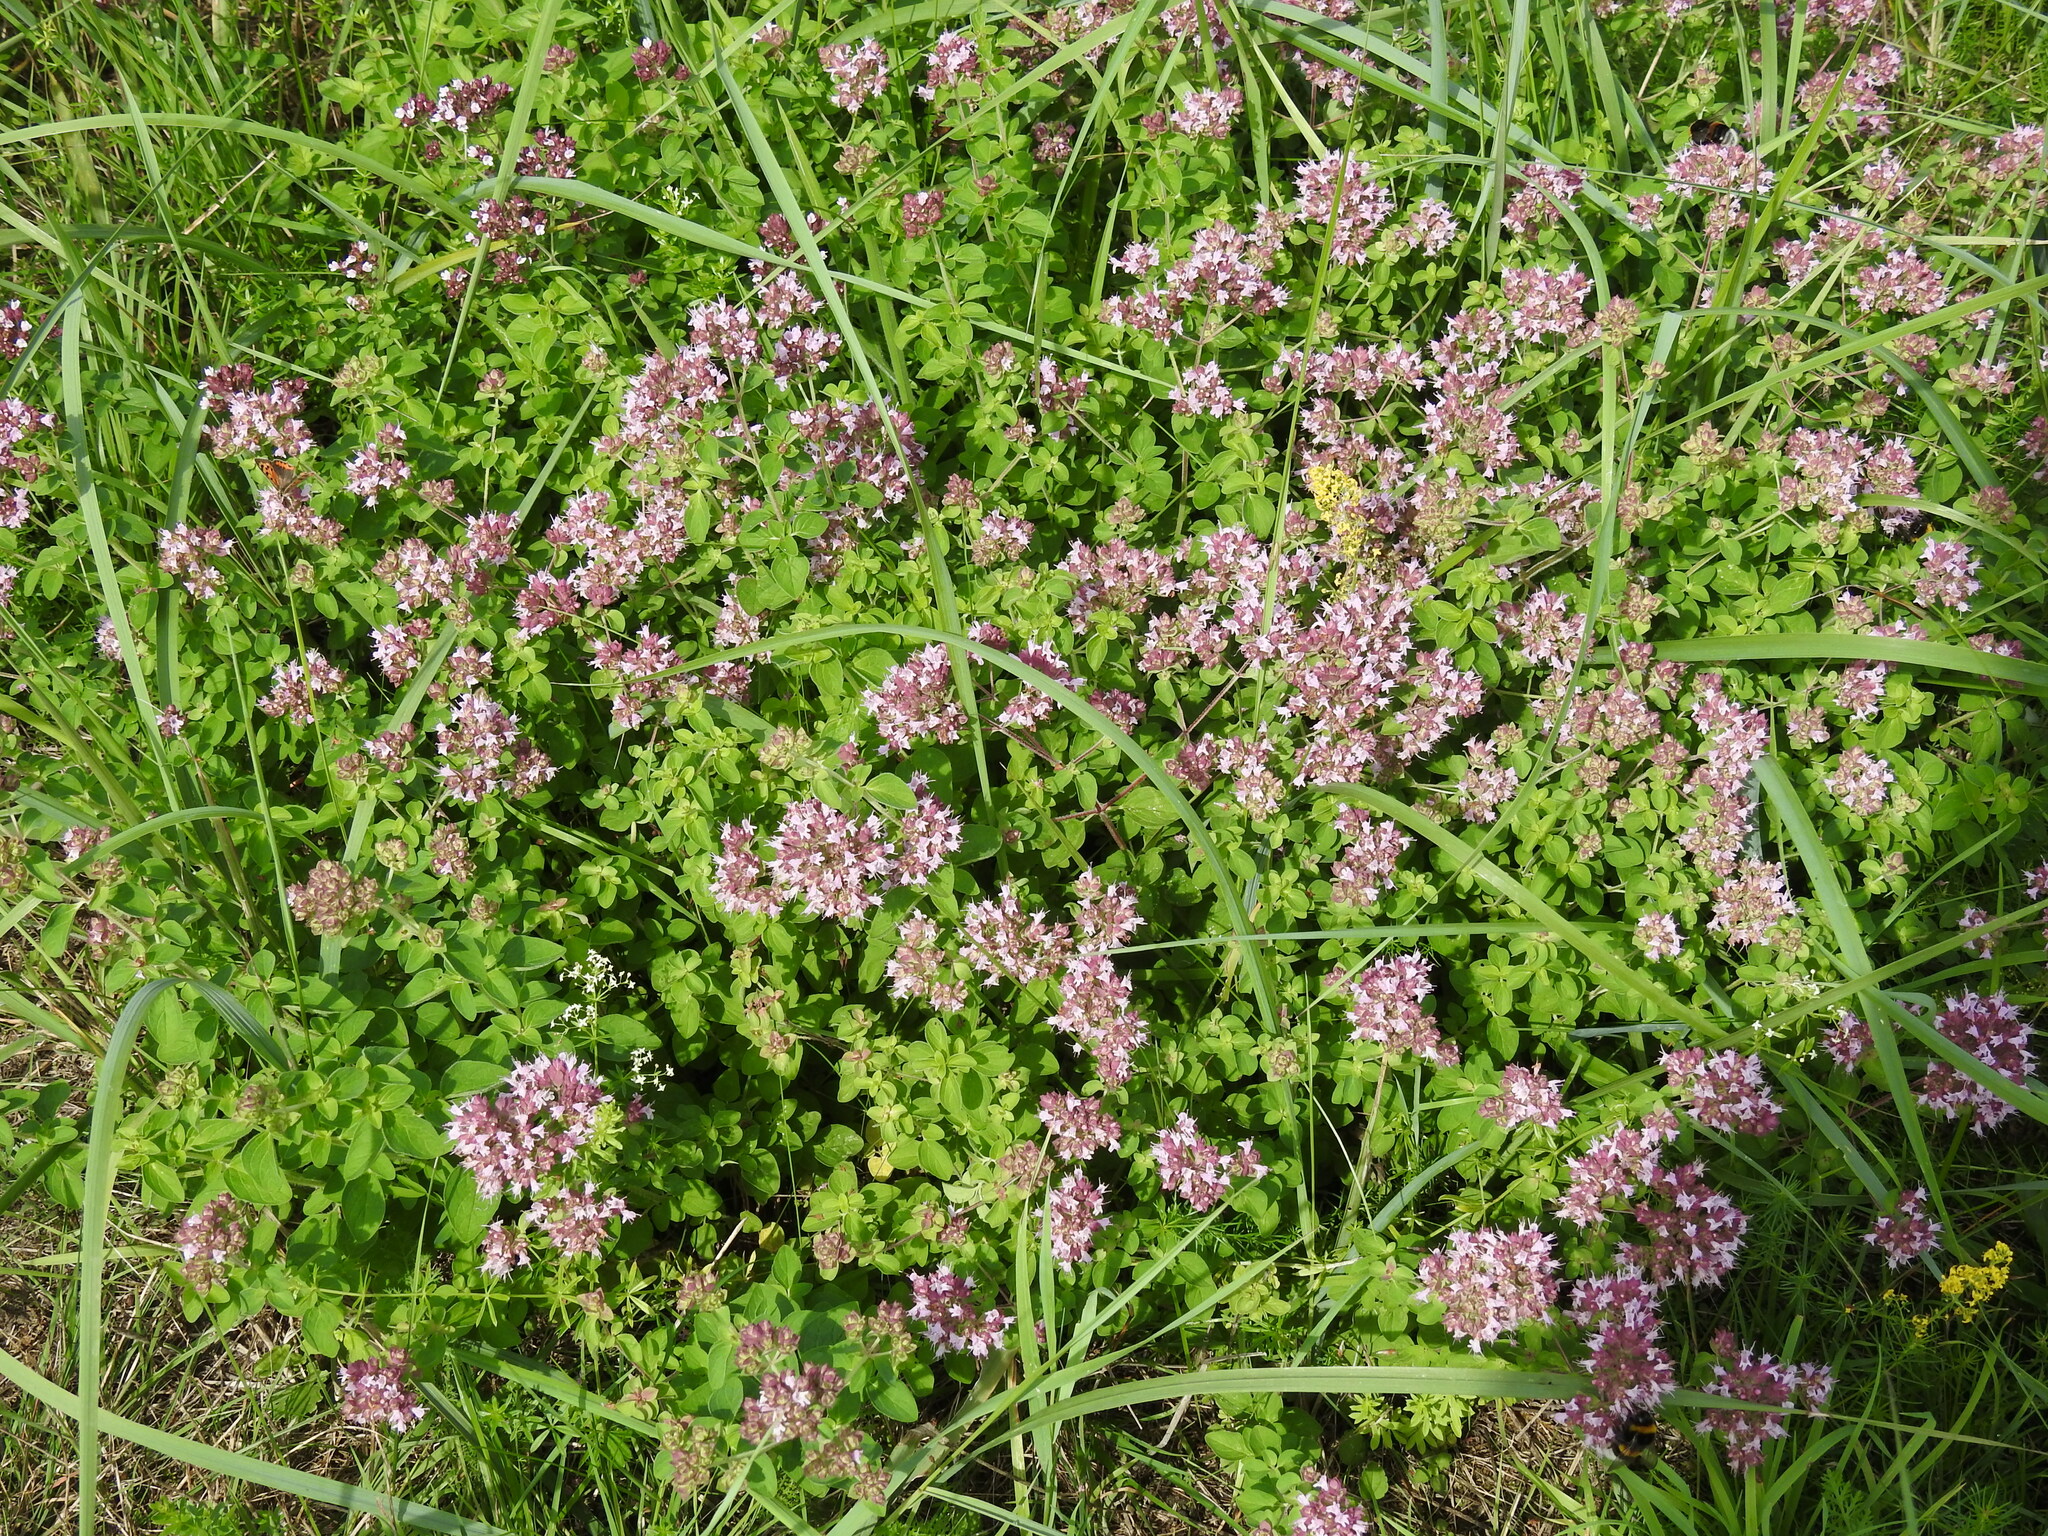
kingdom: Plantae
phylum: Tracheophyta
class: Magnoliopsida
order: Lamiales
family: Lamiaceae
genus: Origanum
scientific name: Origanum vulgare
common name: Wild marjoram
